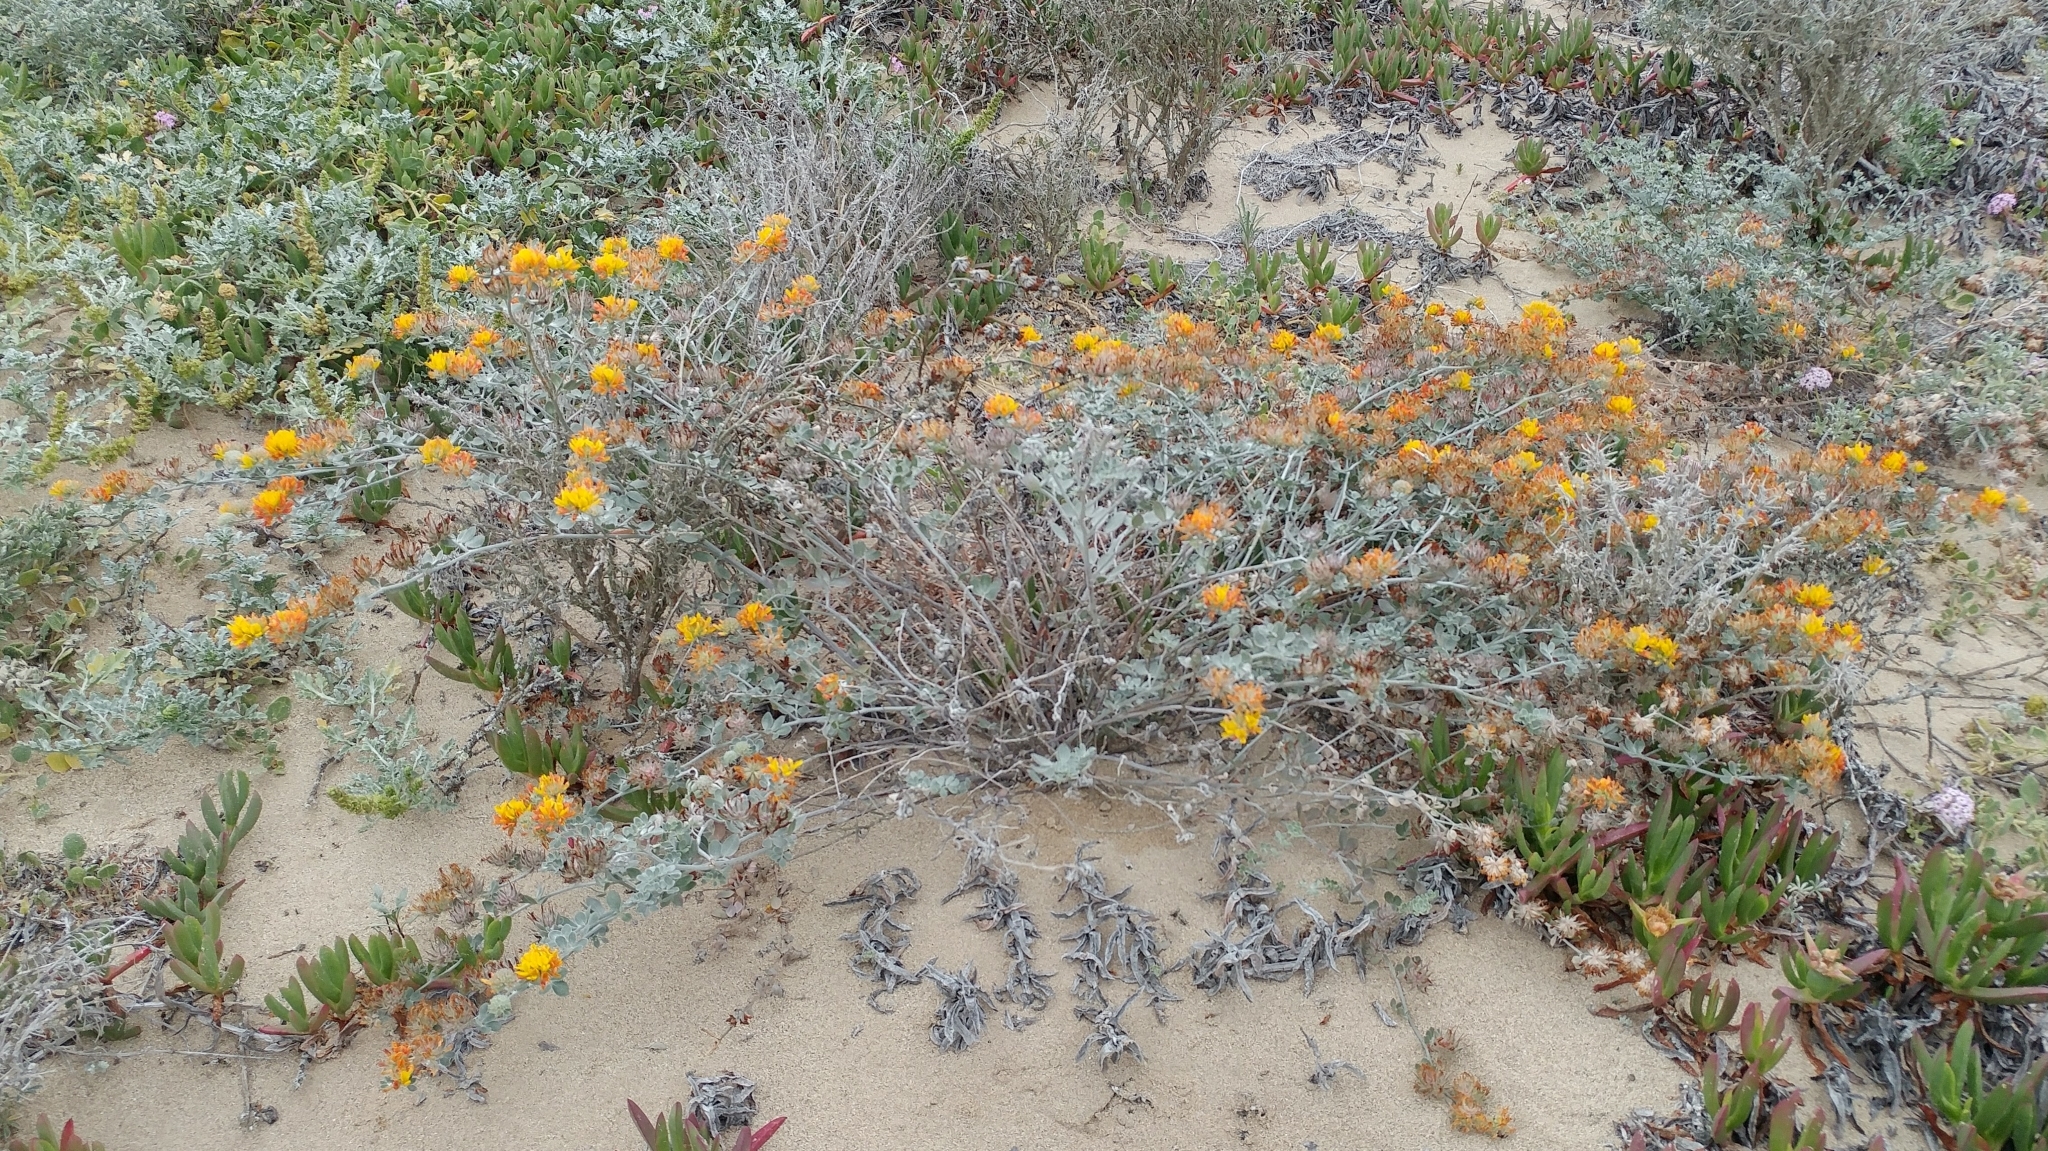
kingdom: Plantae
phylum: Tracheophyta
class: Magnoliopsida
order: Fabales
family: Fabaceae
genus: Acmispon
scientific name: Acmispon argophyllus
